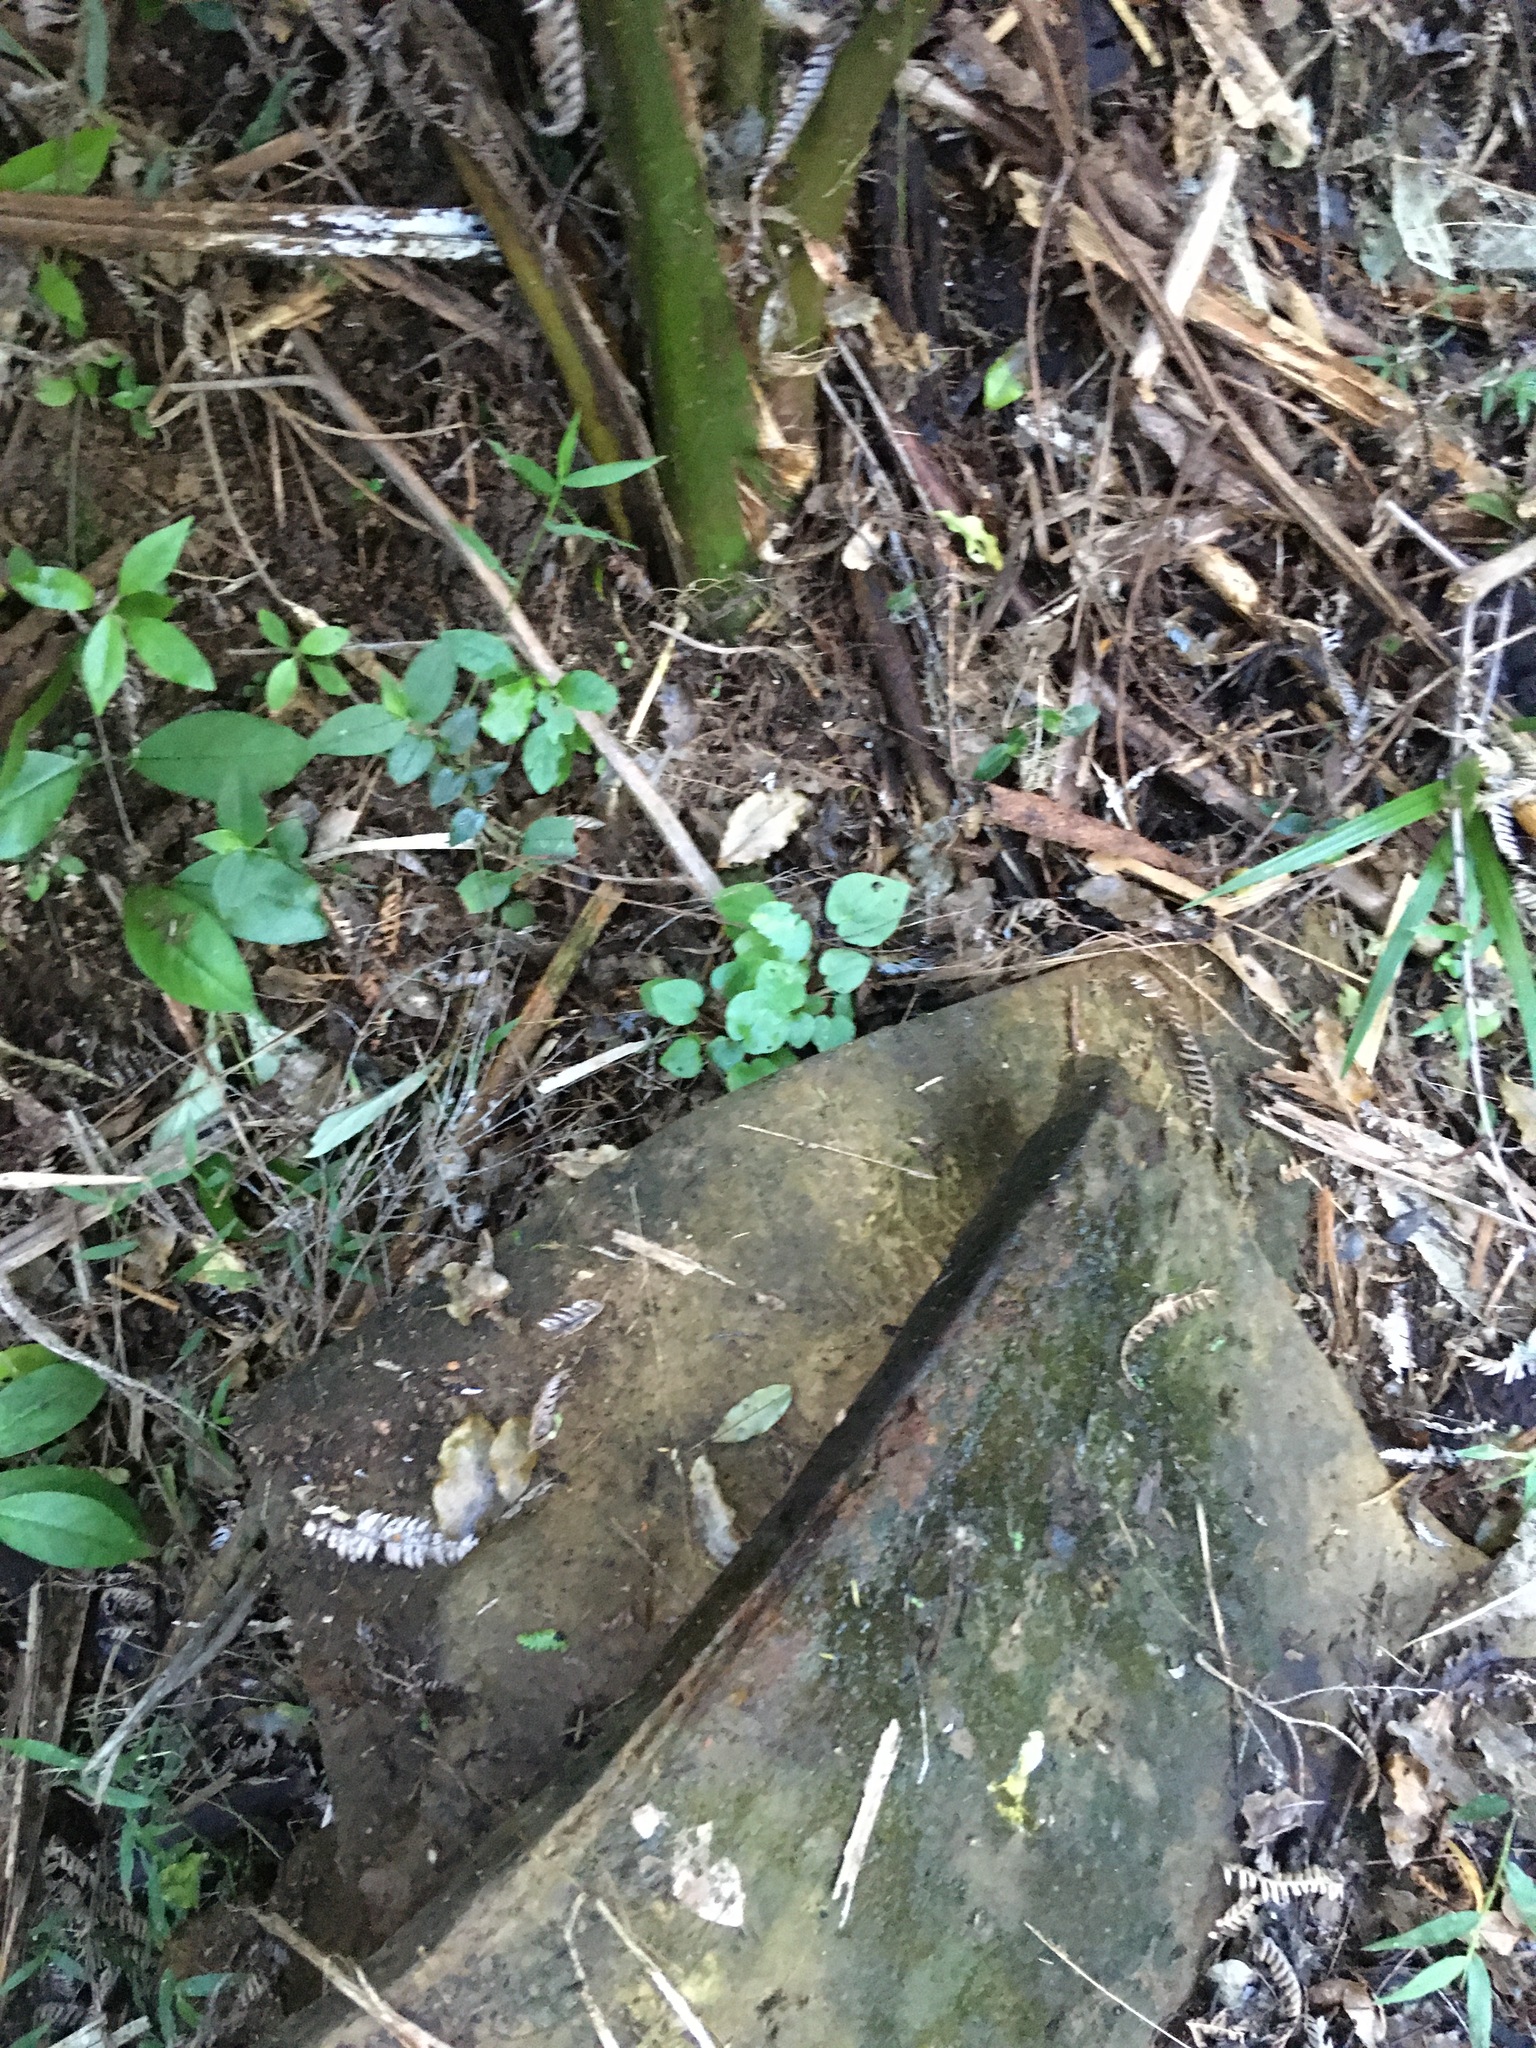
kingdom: Plantae
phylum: Tracheophyta
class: Magnoliopsida
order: Piperales
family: Piperaceae
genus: Macropiper
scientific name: Macropiper excelsum
